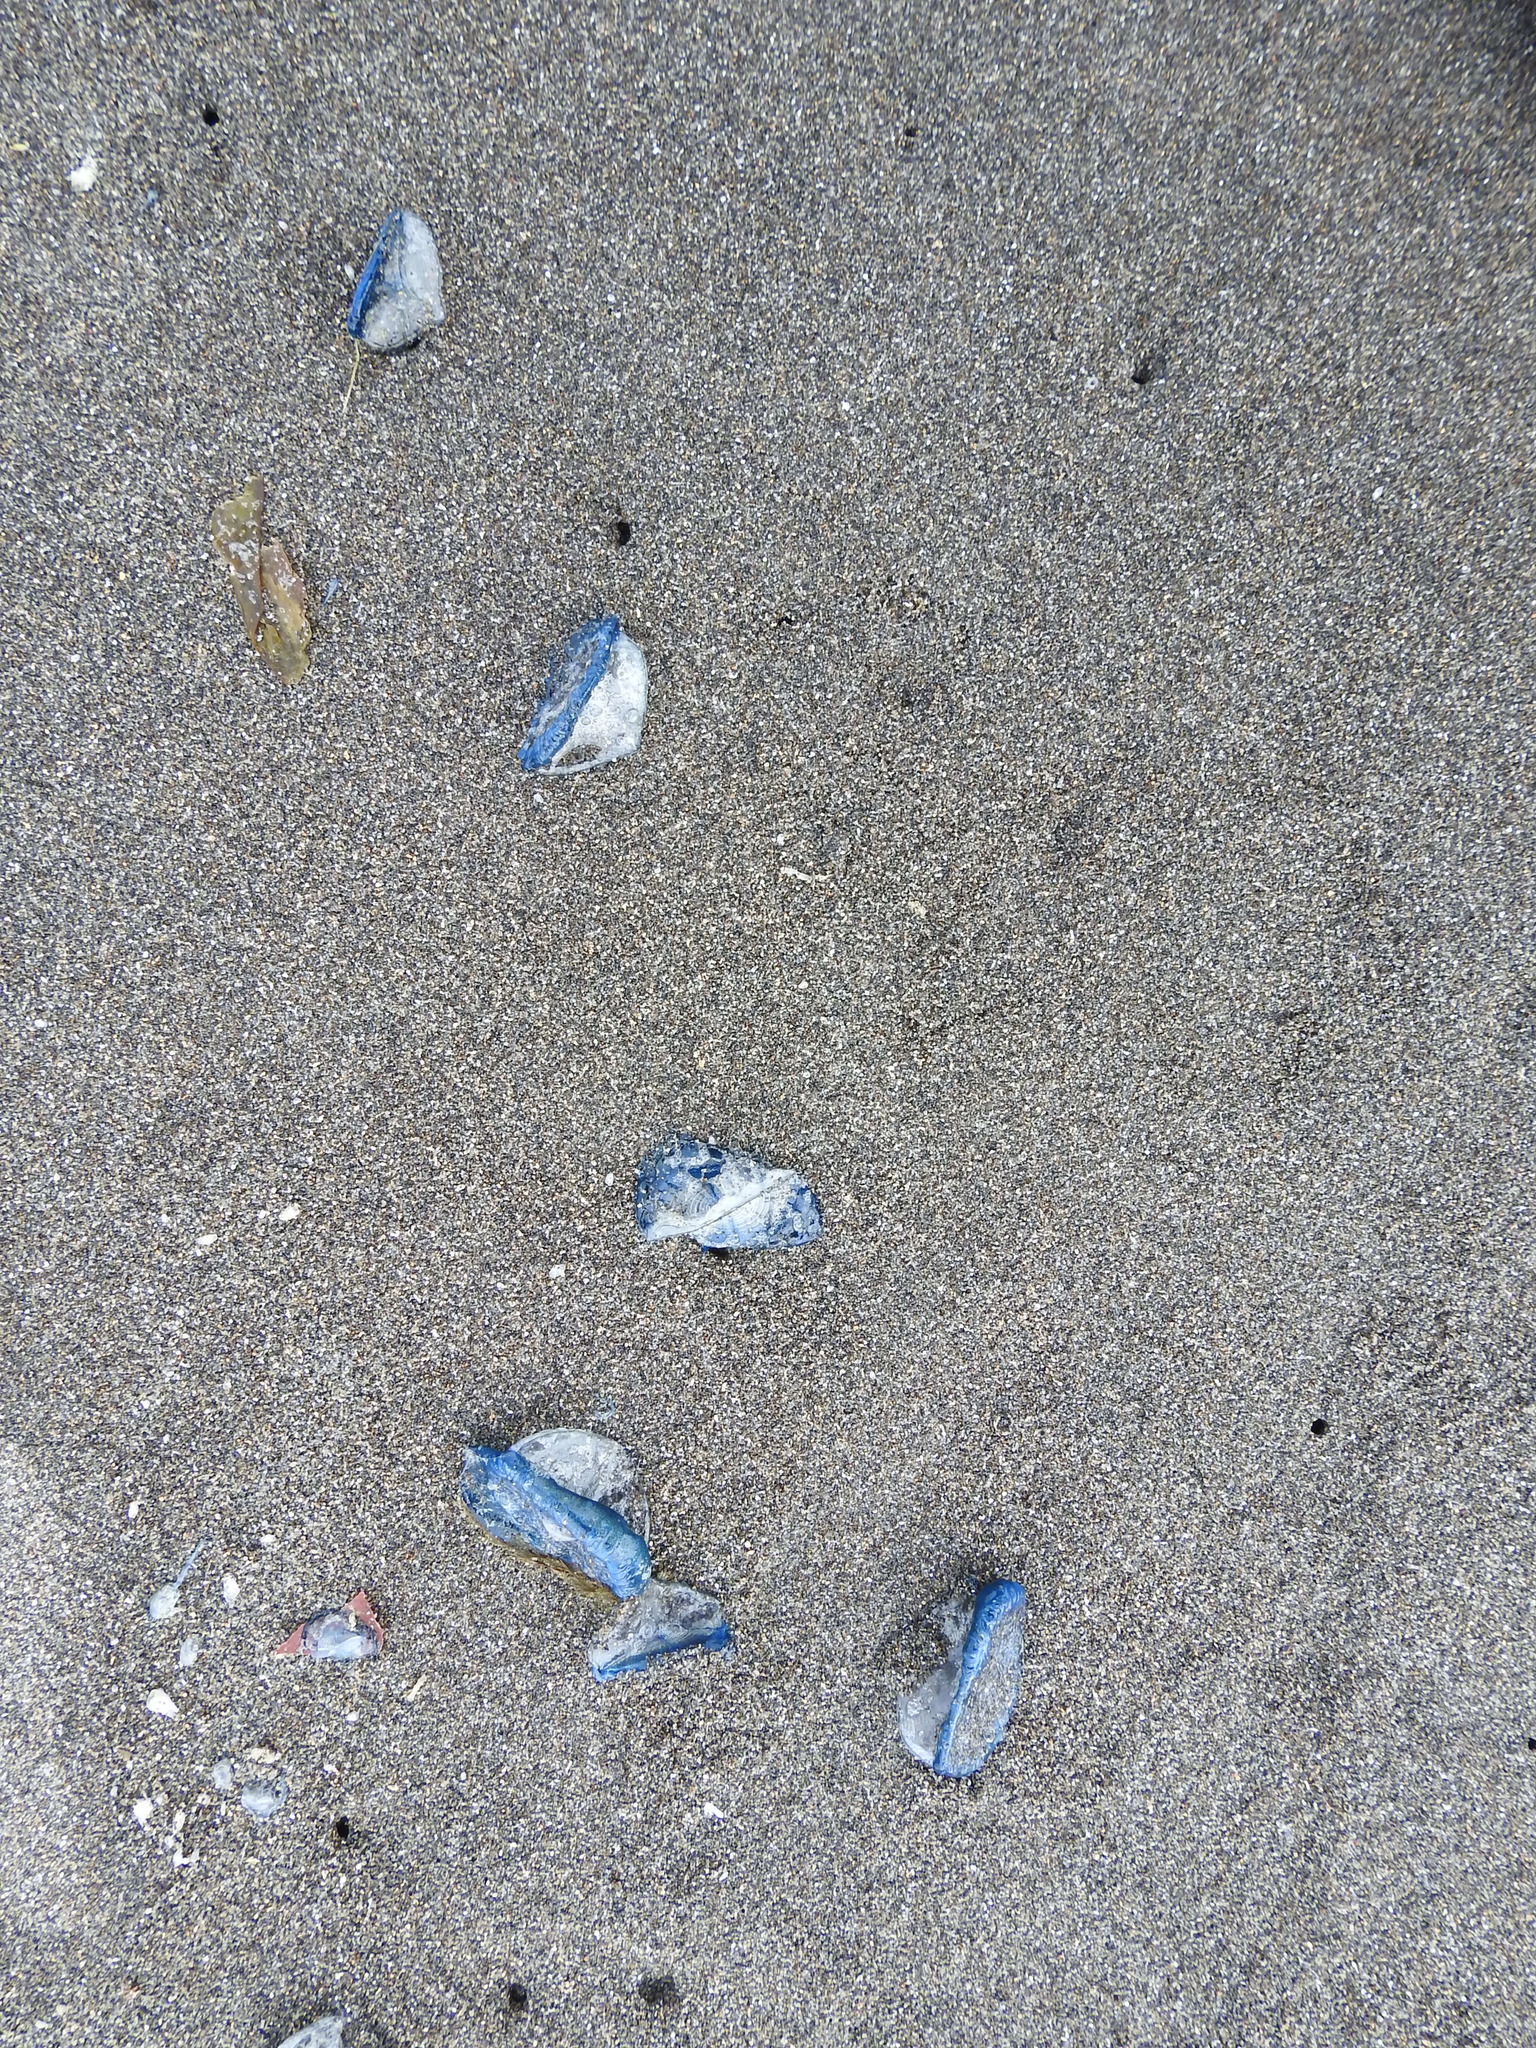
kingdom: Animalia
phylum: Cnidaria
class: Hydrozoa
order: Anthoathecata
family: Porpitidae
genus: Velella
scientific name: Velella velella
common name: By-the-wind-sailor
